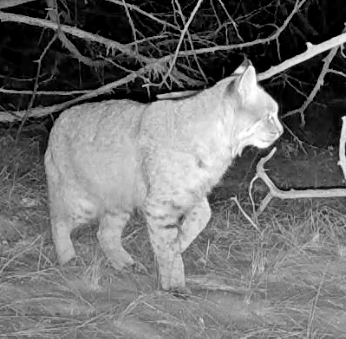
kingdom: Animalia
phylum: Chordata
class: Mammalia
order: Carnivora
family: Felidae
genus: Lynx
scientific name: Lynx rufus
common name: Bobcat
